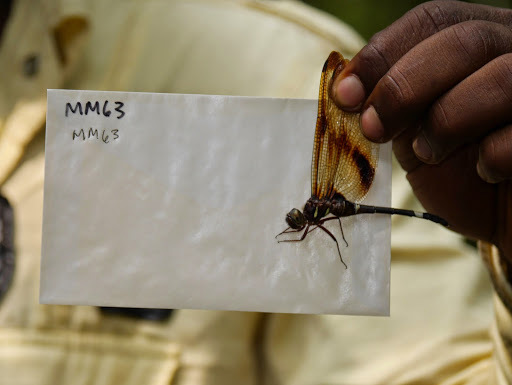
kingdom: Animalia
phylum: Arthropoda
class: Insecta
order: Odonata
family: Libellulidae
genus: Zygonyx
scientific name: Zygonyx regisalberti
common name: Regal cascader
